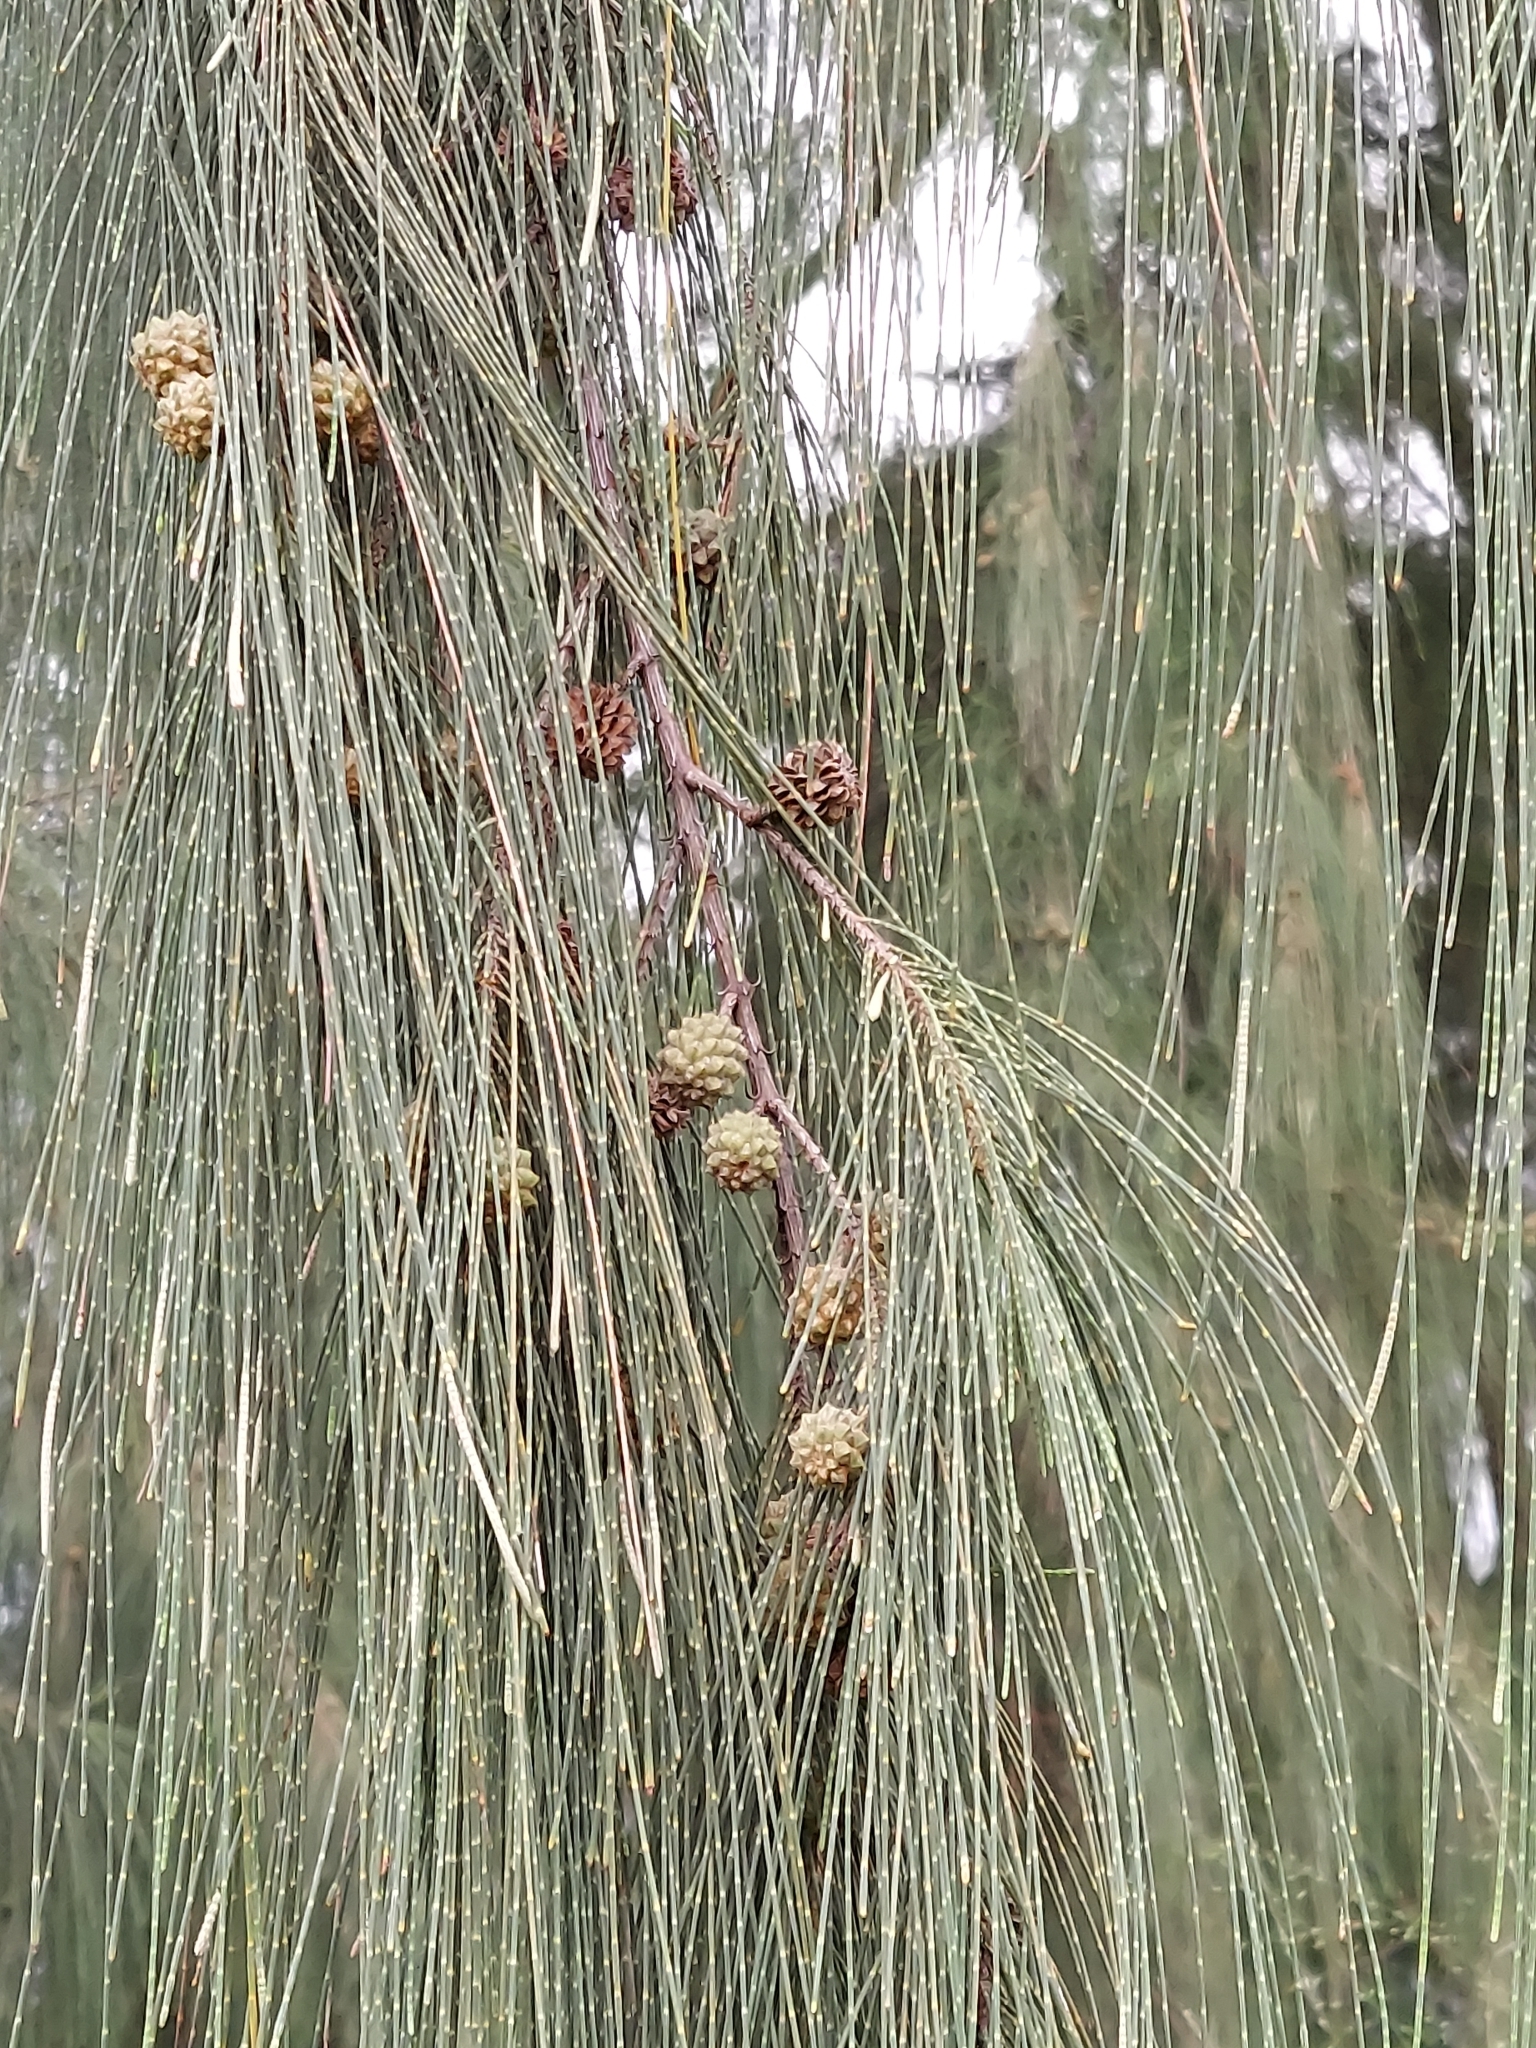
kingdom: Plantae
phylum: Tracheophyta
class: Magnoliopsida
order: Fagales
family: Casuarinaceae
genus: Casuarina
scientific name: Casuarina equisetifolia
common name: Beach sheoak
